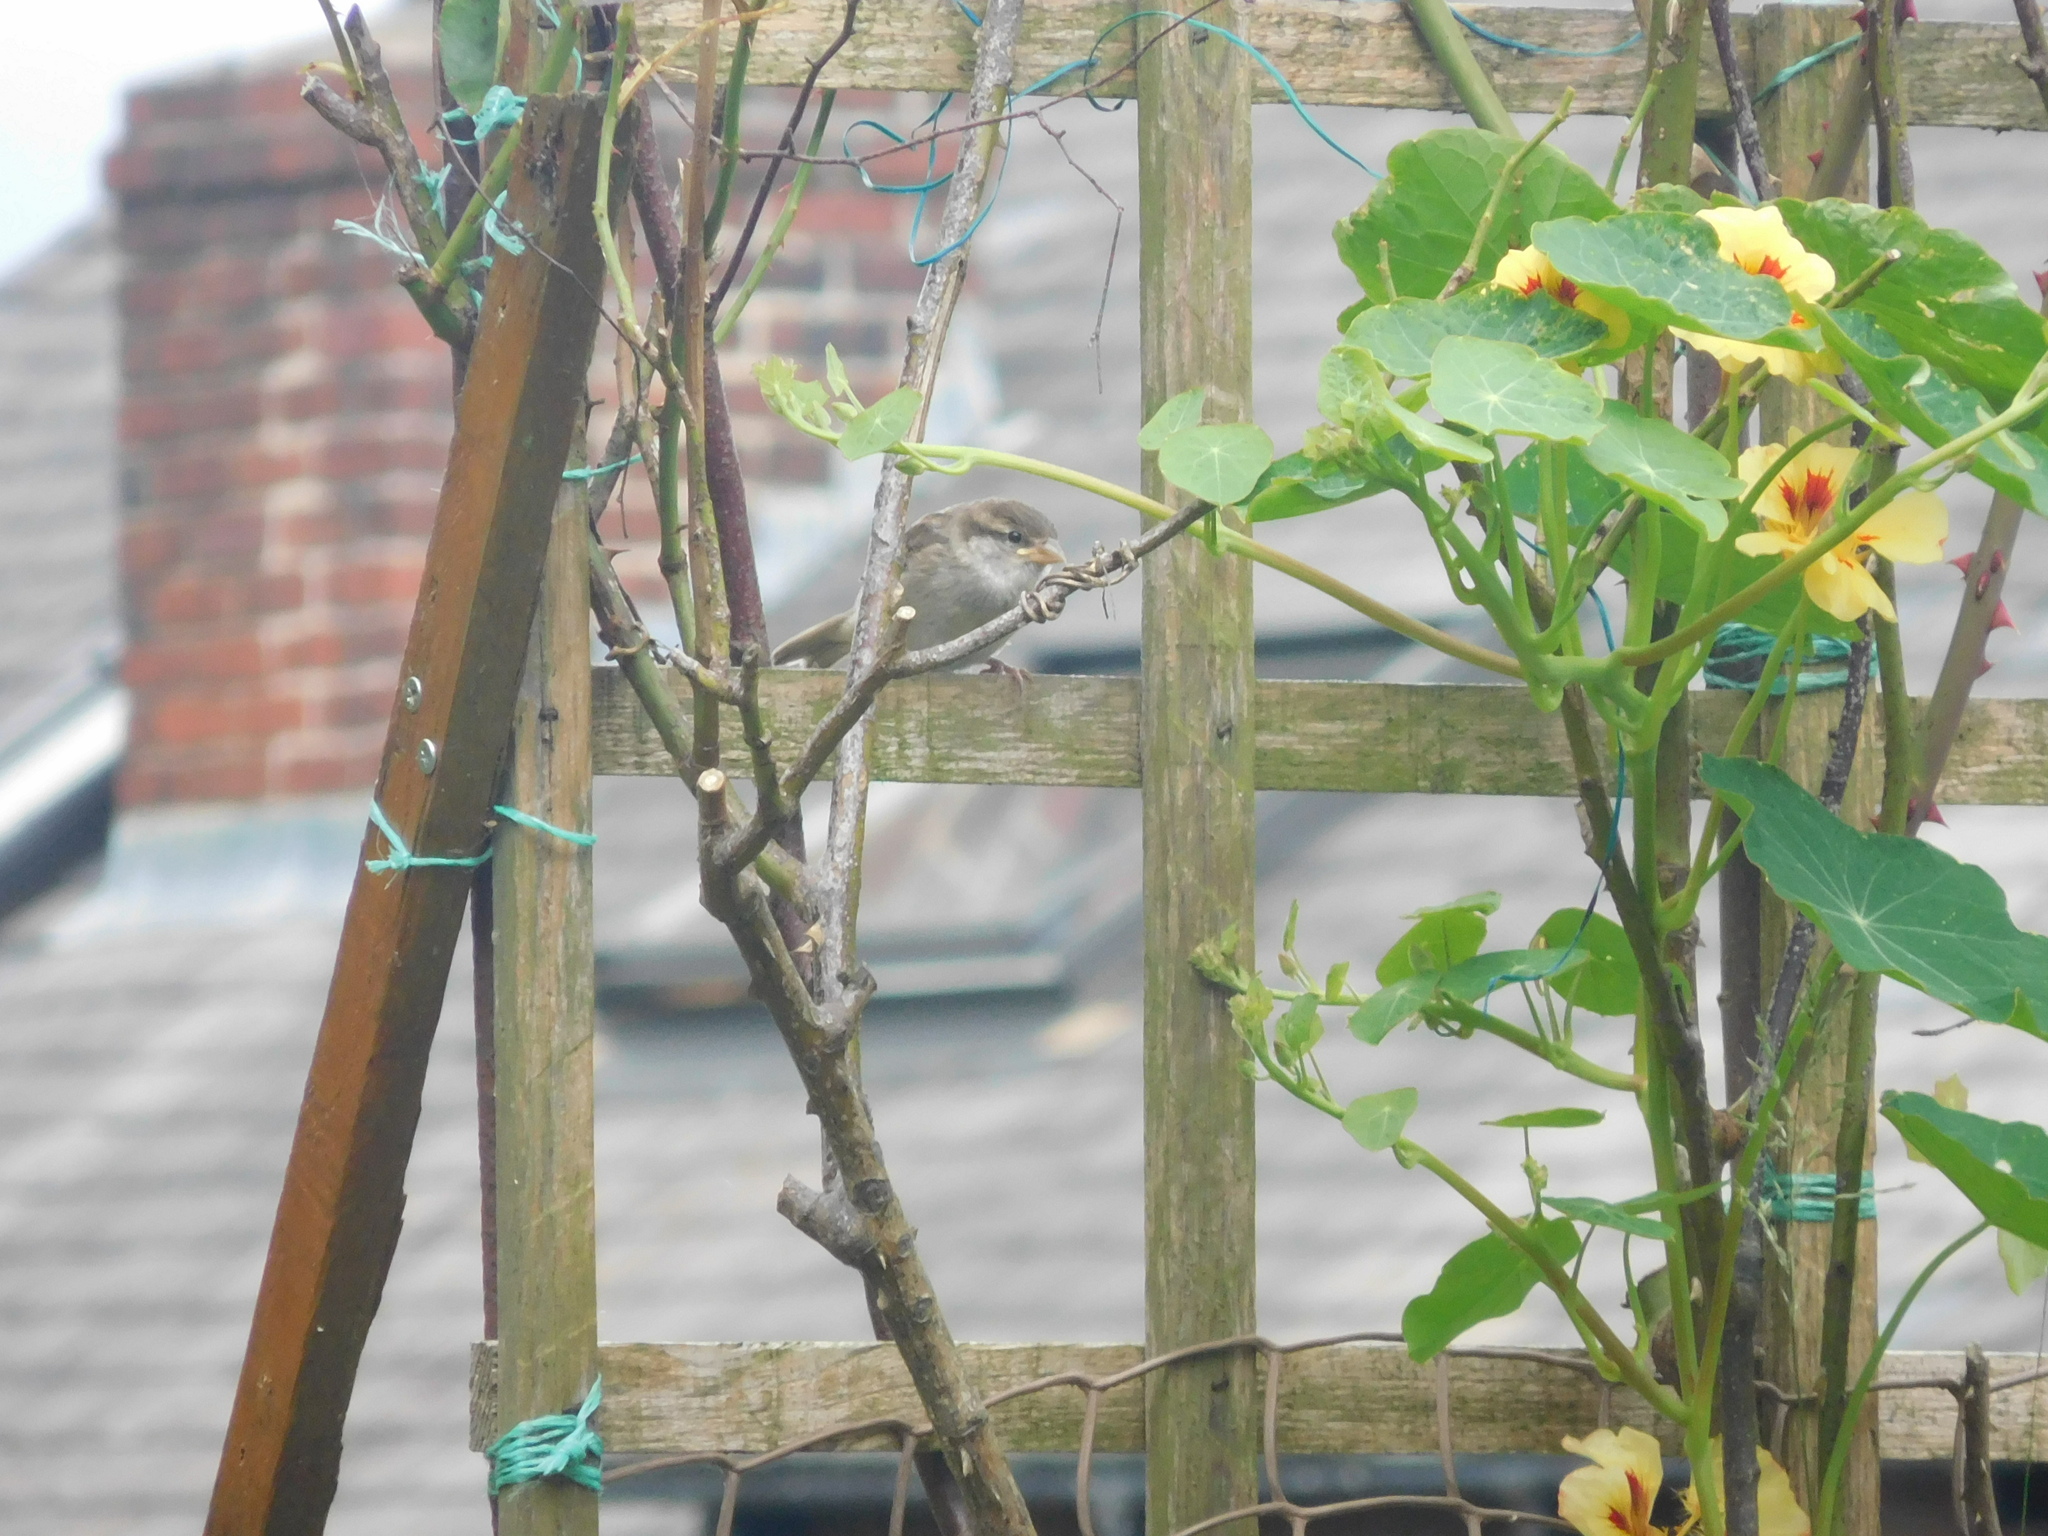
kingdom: Animalia
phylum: Chordata
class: Aves
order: Passeriformes
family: Passeridae
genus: Passer
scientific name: Passer domesticus
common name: House sparrow
